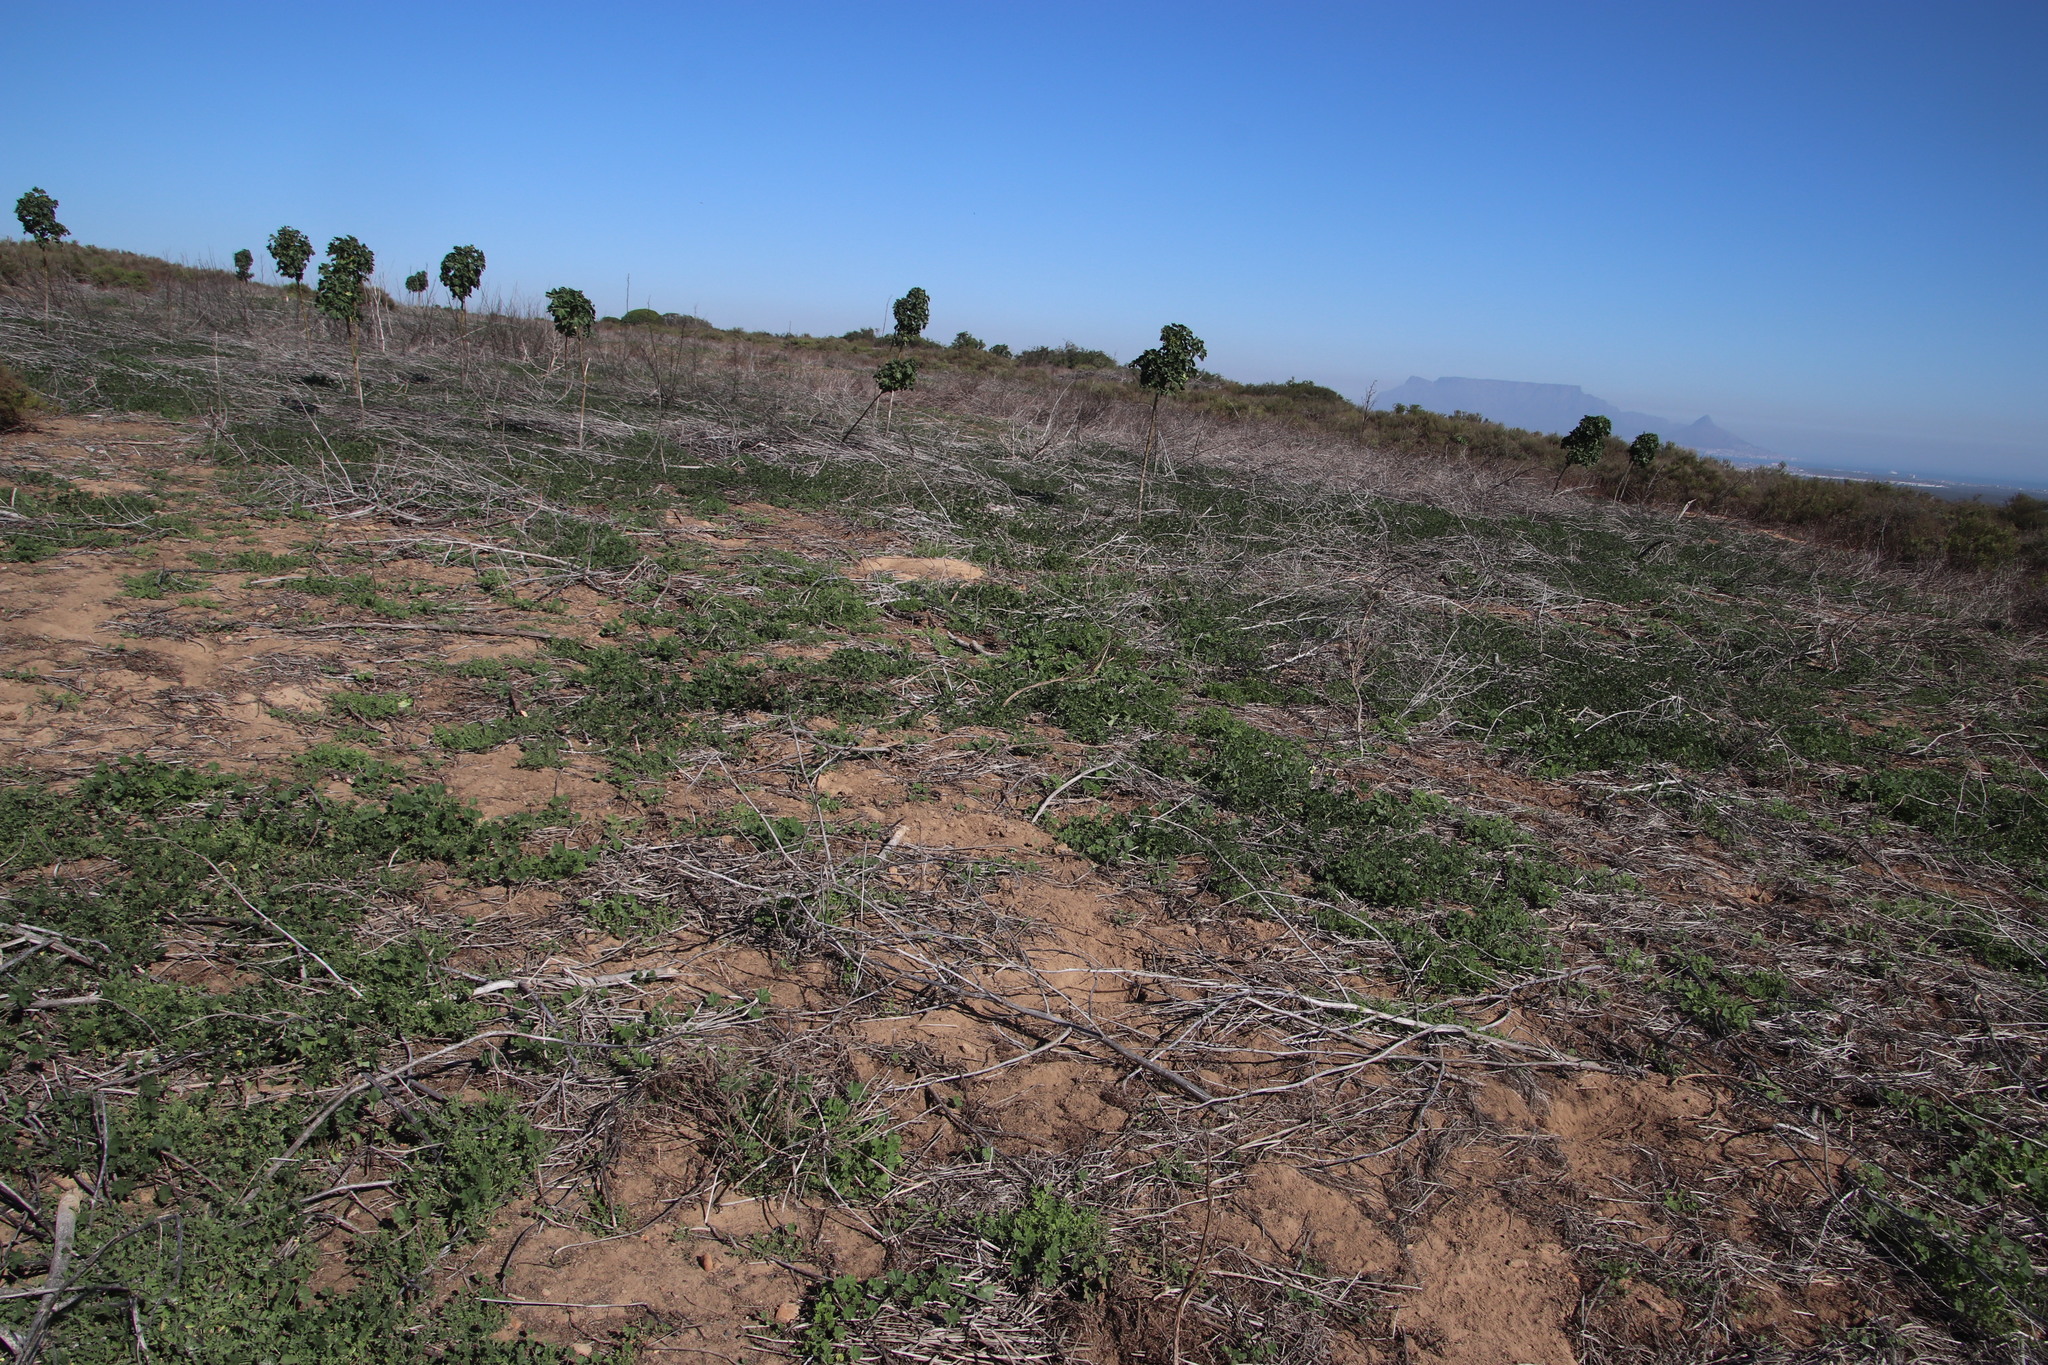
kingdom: Plantae
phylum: Tracheophyta
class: Magnoliopsida
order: Malvales
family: Malvaceae
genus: Malva
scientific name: Malva parviflora
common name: Least mallow
